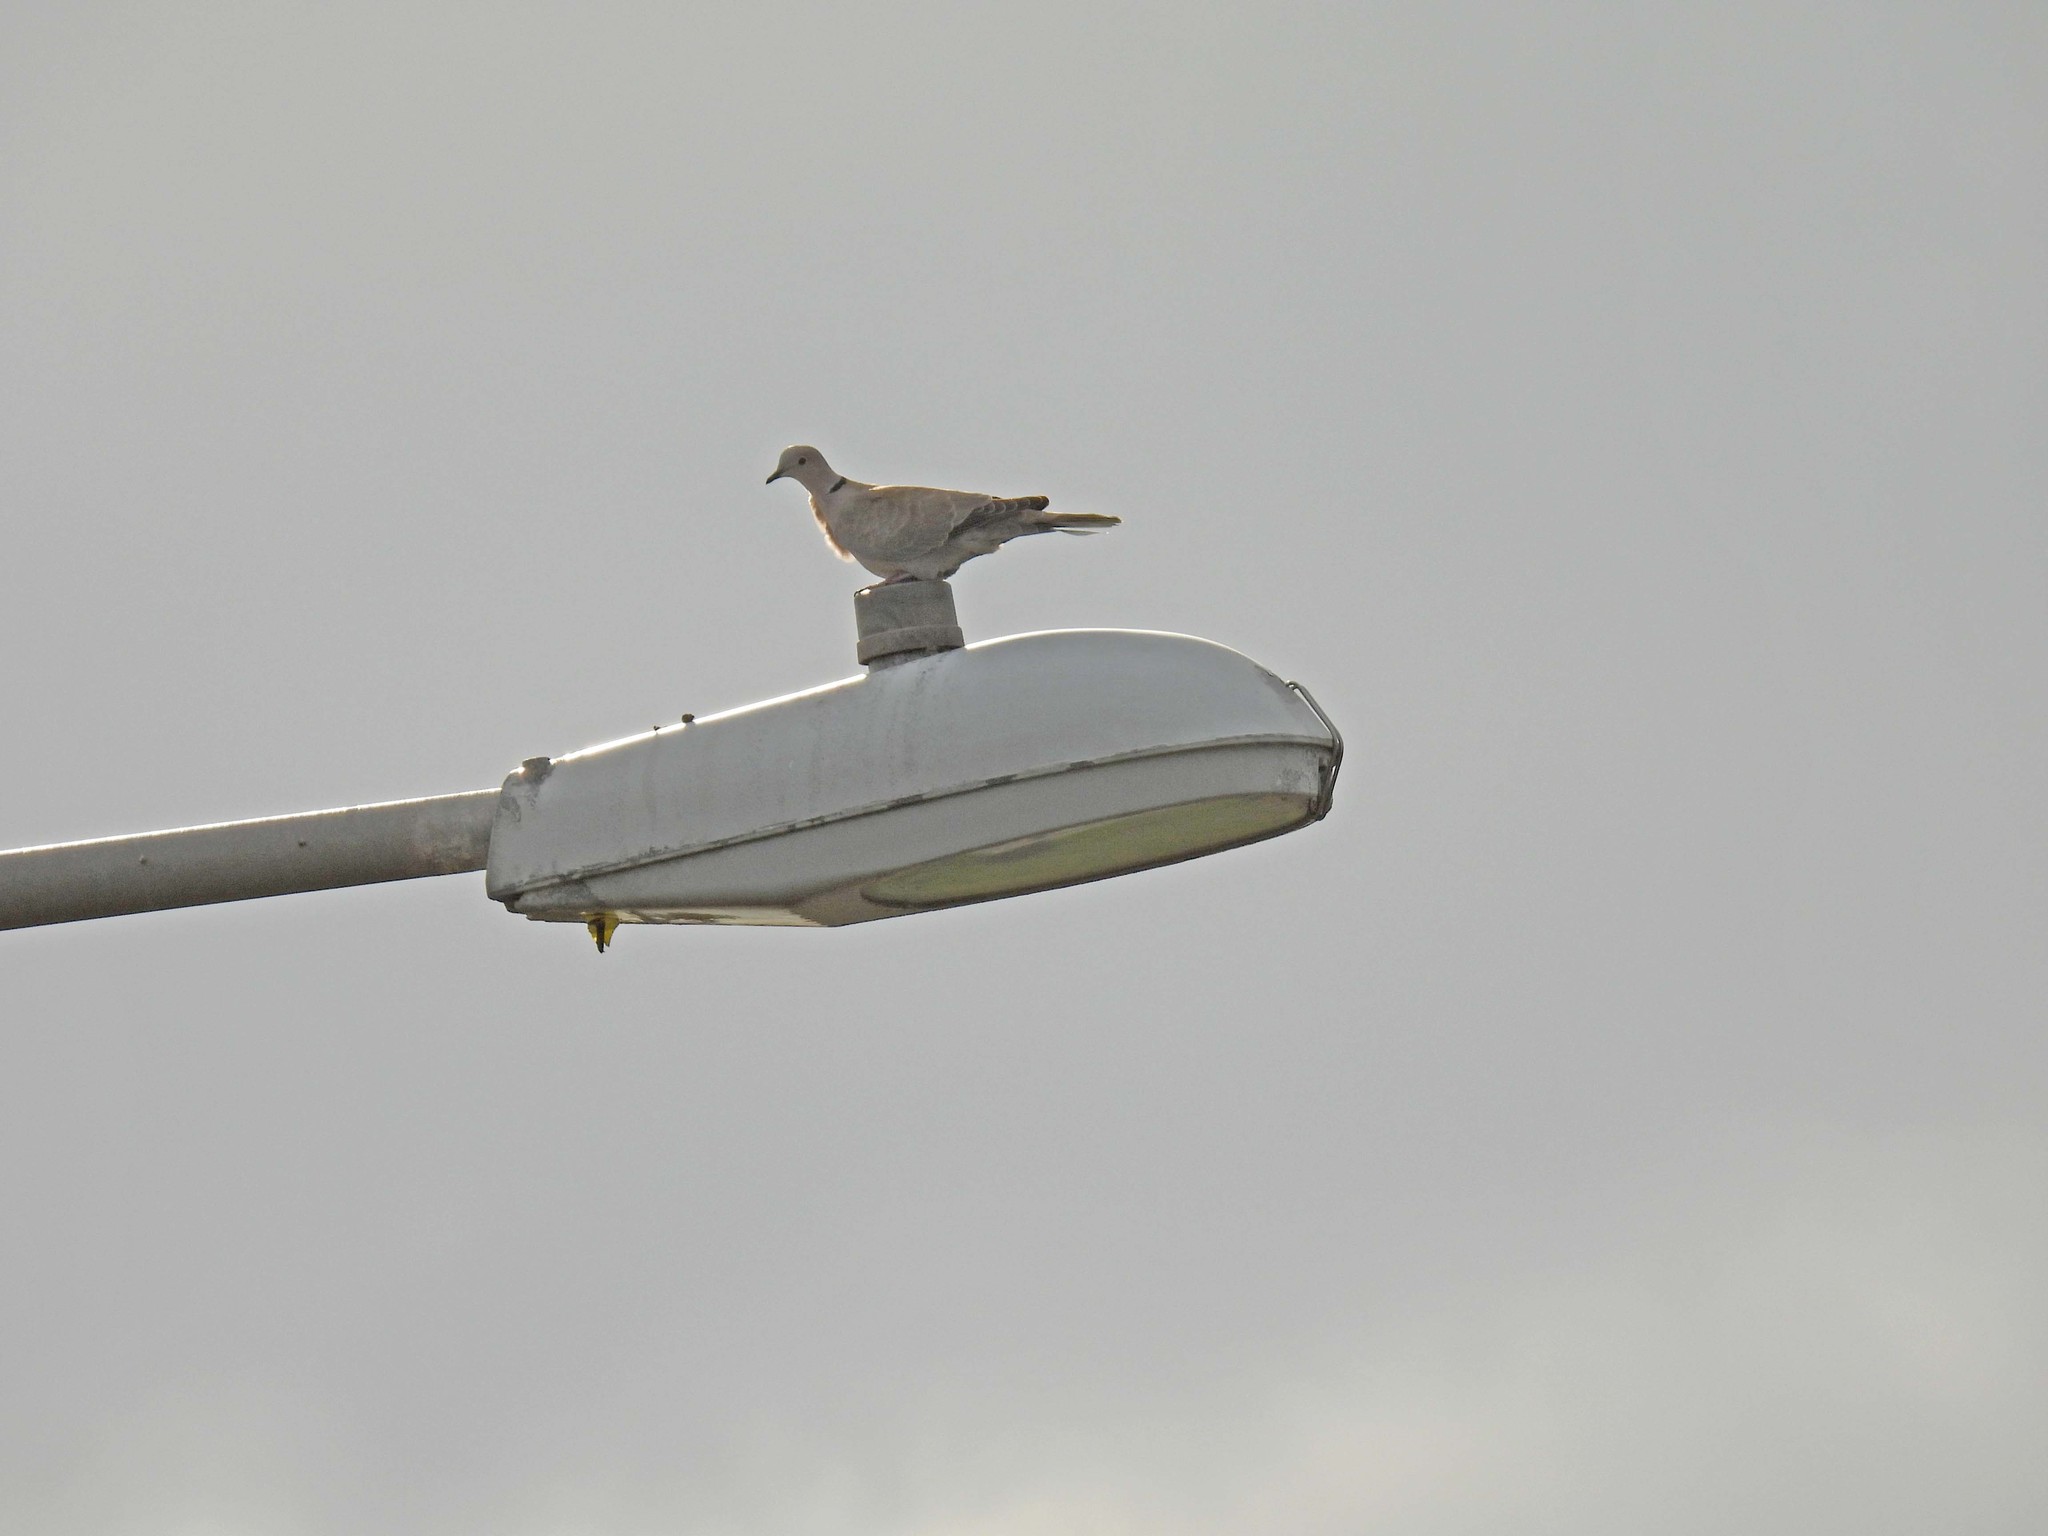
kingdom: Animalia
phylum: Chordata
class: Aves
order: Columbiformes
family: Columbidae
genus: Streptopelia
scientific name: Streptopelia decaocto
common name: Eurasian collared dove
